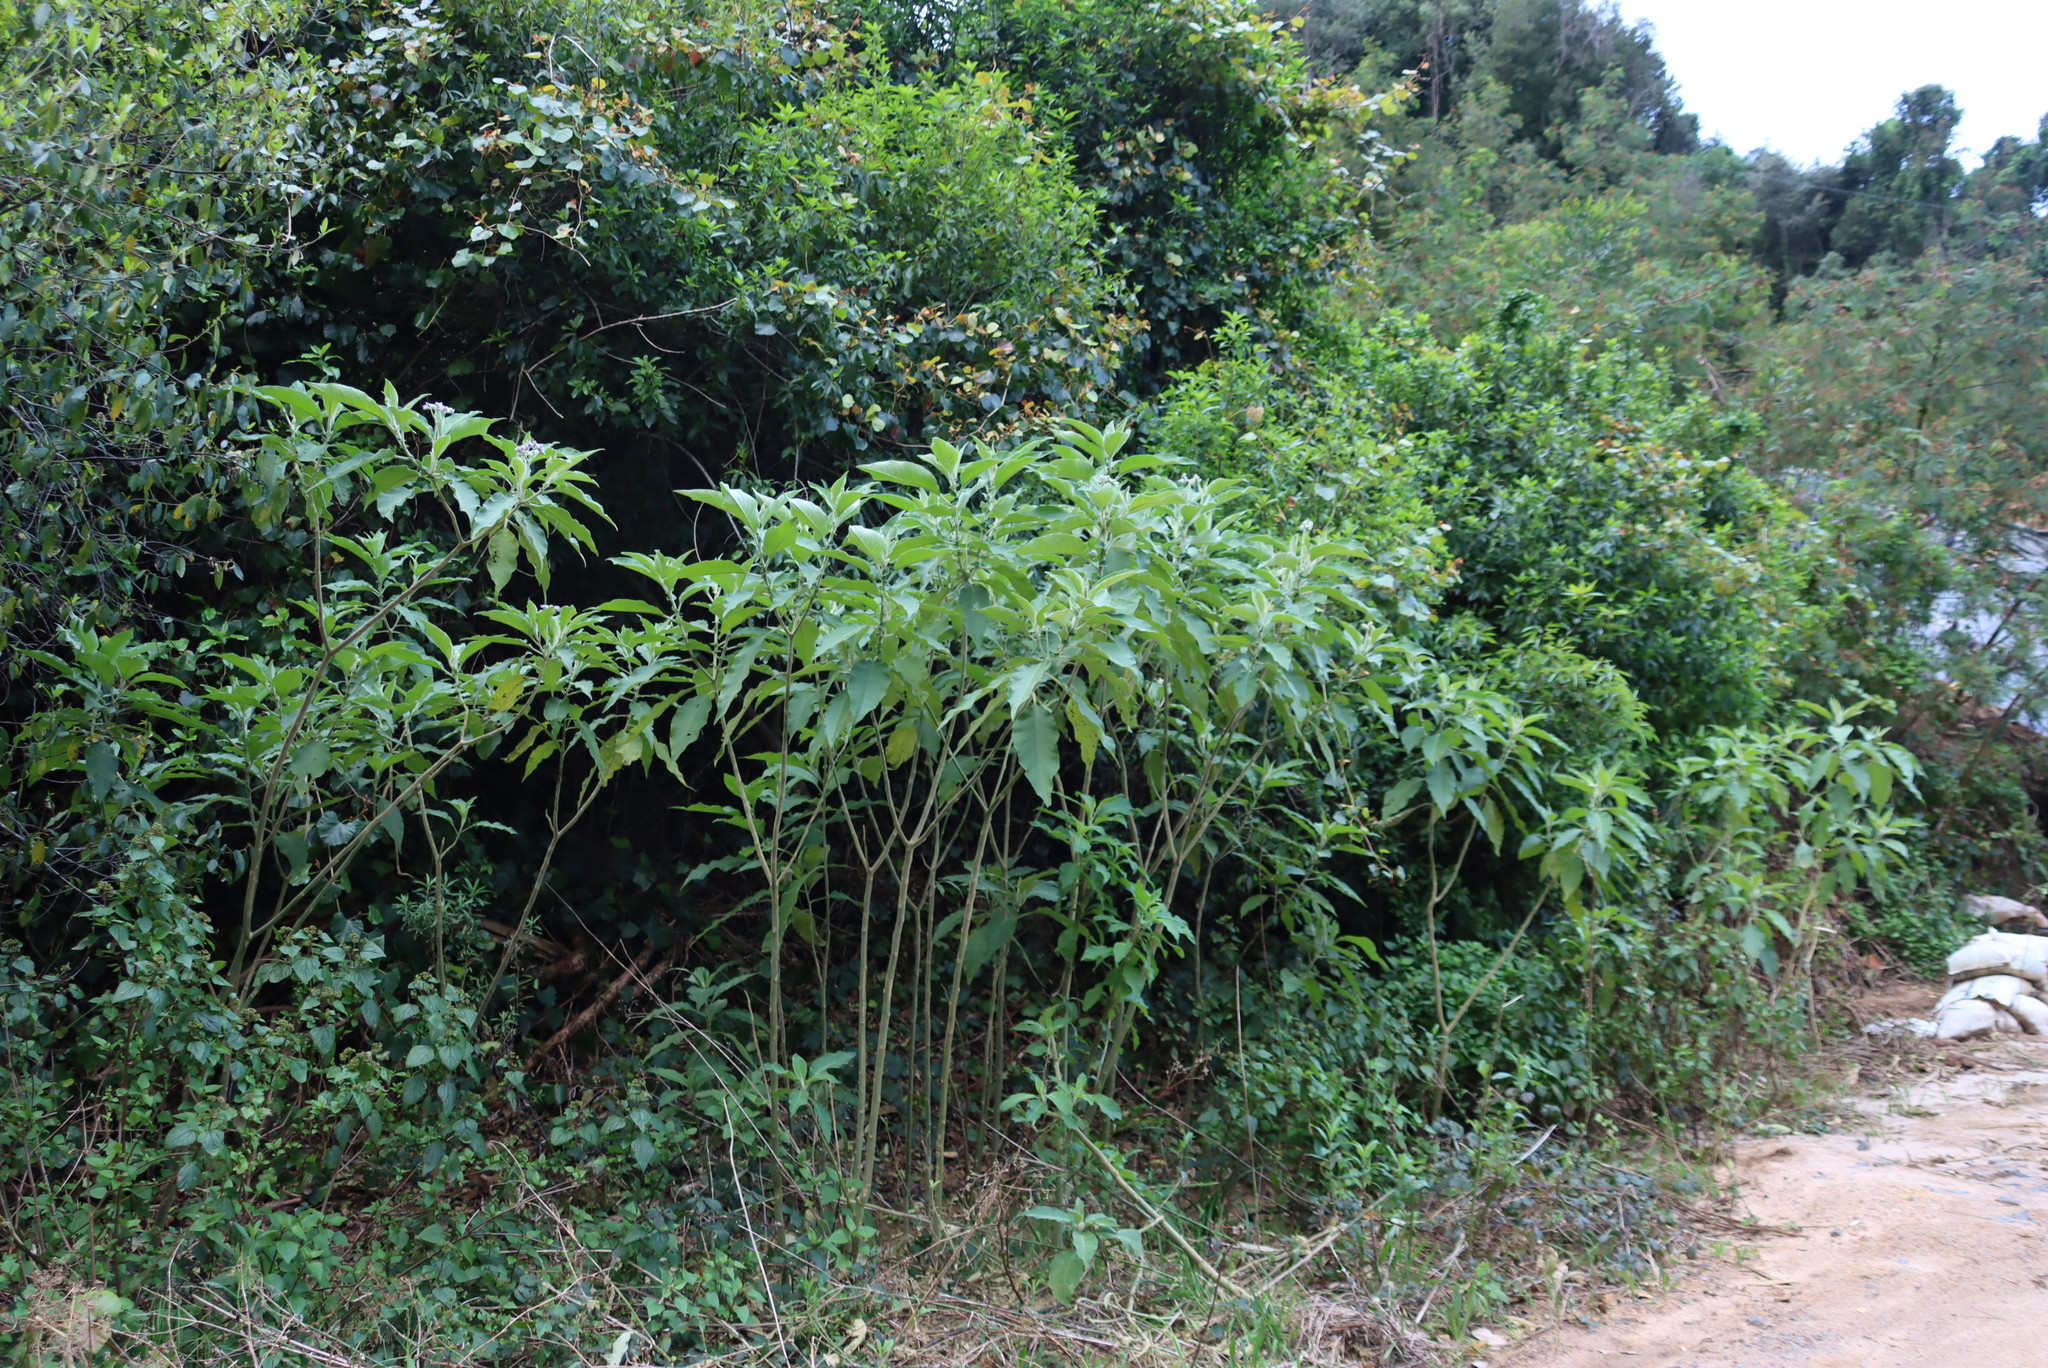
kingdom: Plantae
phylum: Tracheophyta
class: Magnoliopsida
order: Solanales
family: Solanaceae
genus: Solanum
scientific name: Solanum mauritianum
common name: Earleaf nightshade
